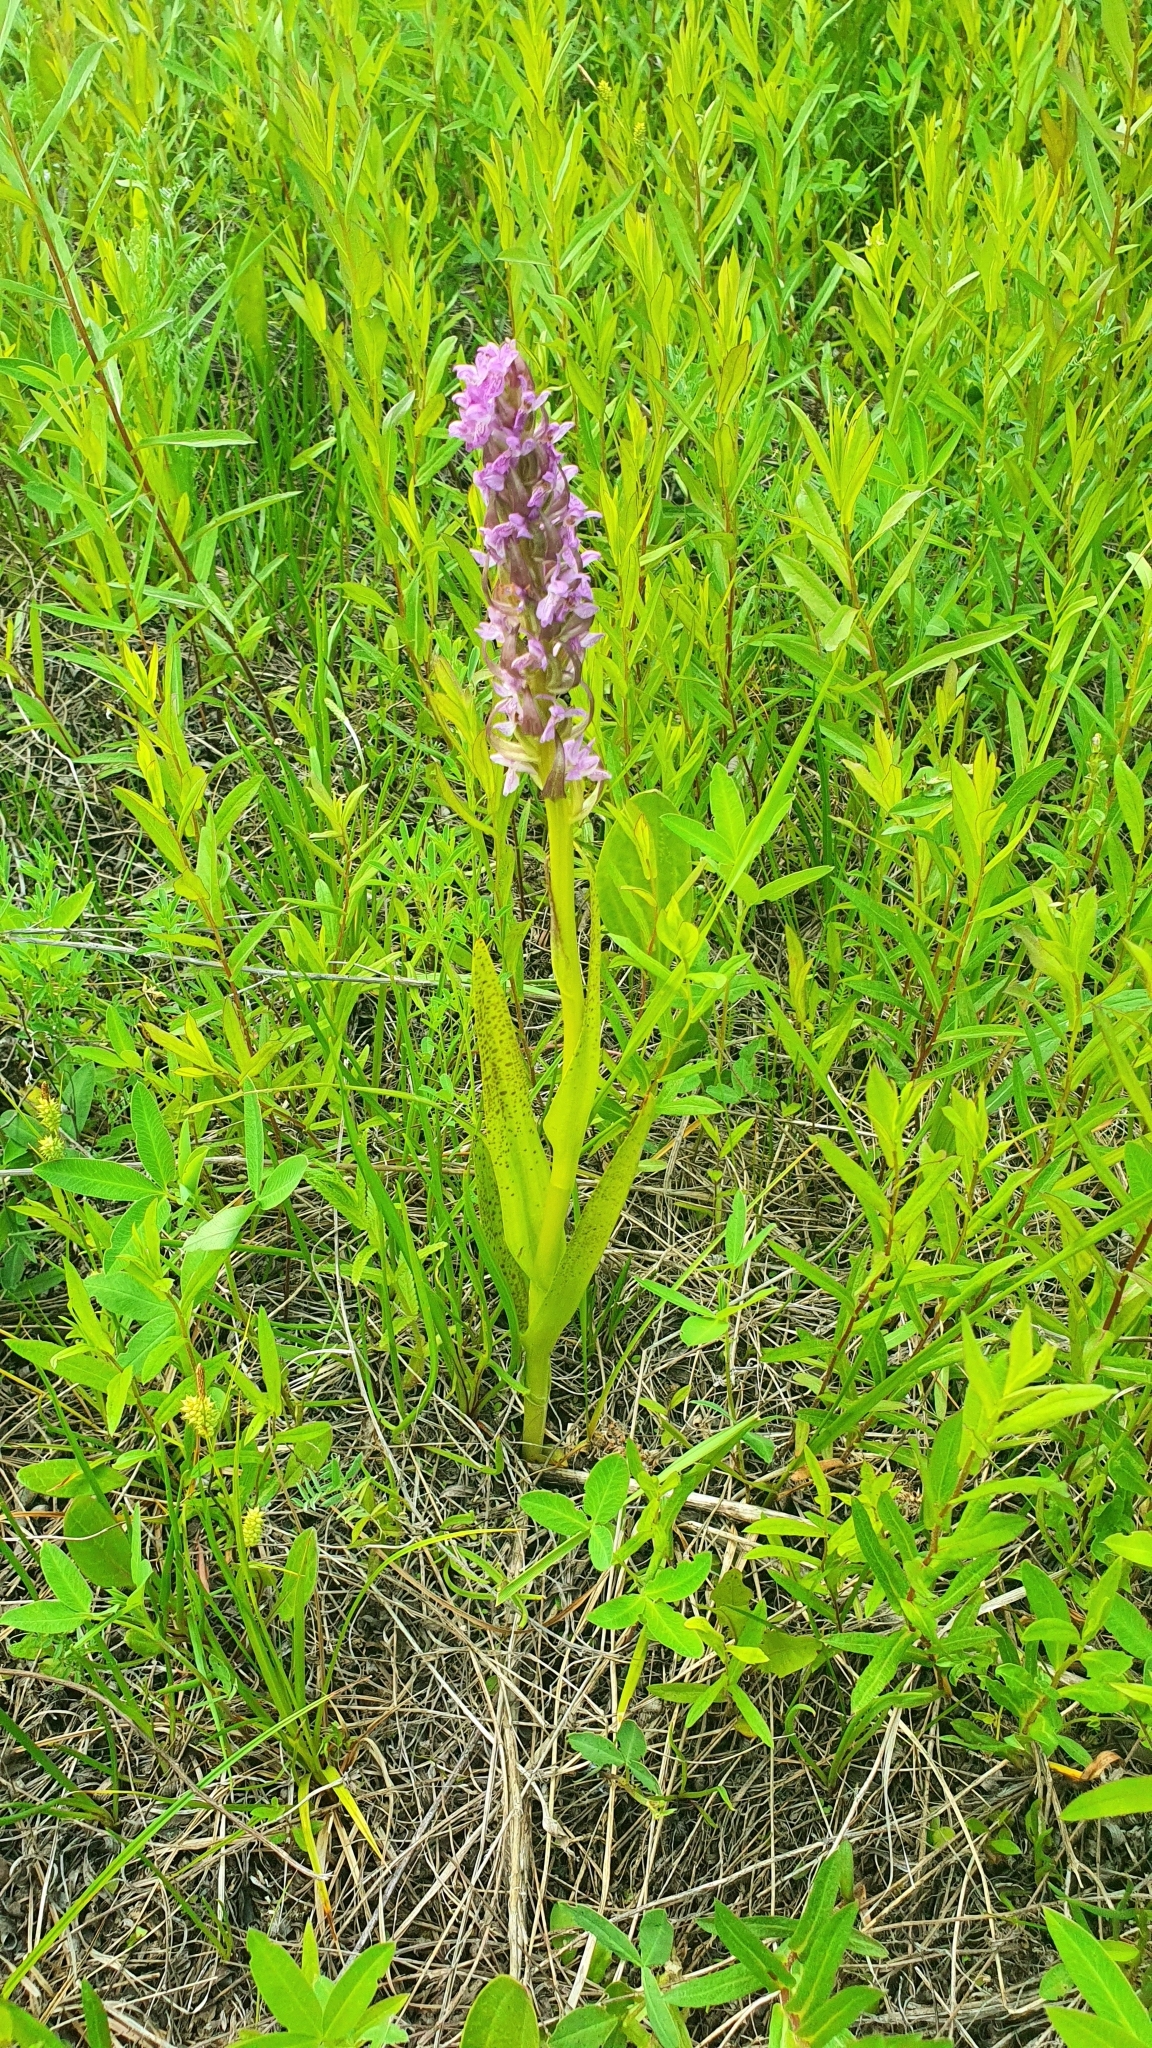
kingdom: Plantae
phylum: Tracheophyta
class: Liliopsida
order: Asparagales
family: Orchidaceae
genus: Dactylorhiza
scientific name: Dactylorhiza incarnata
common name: Early marsh-orchid
